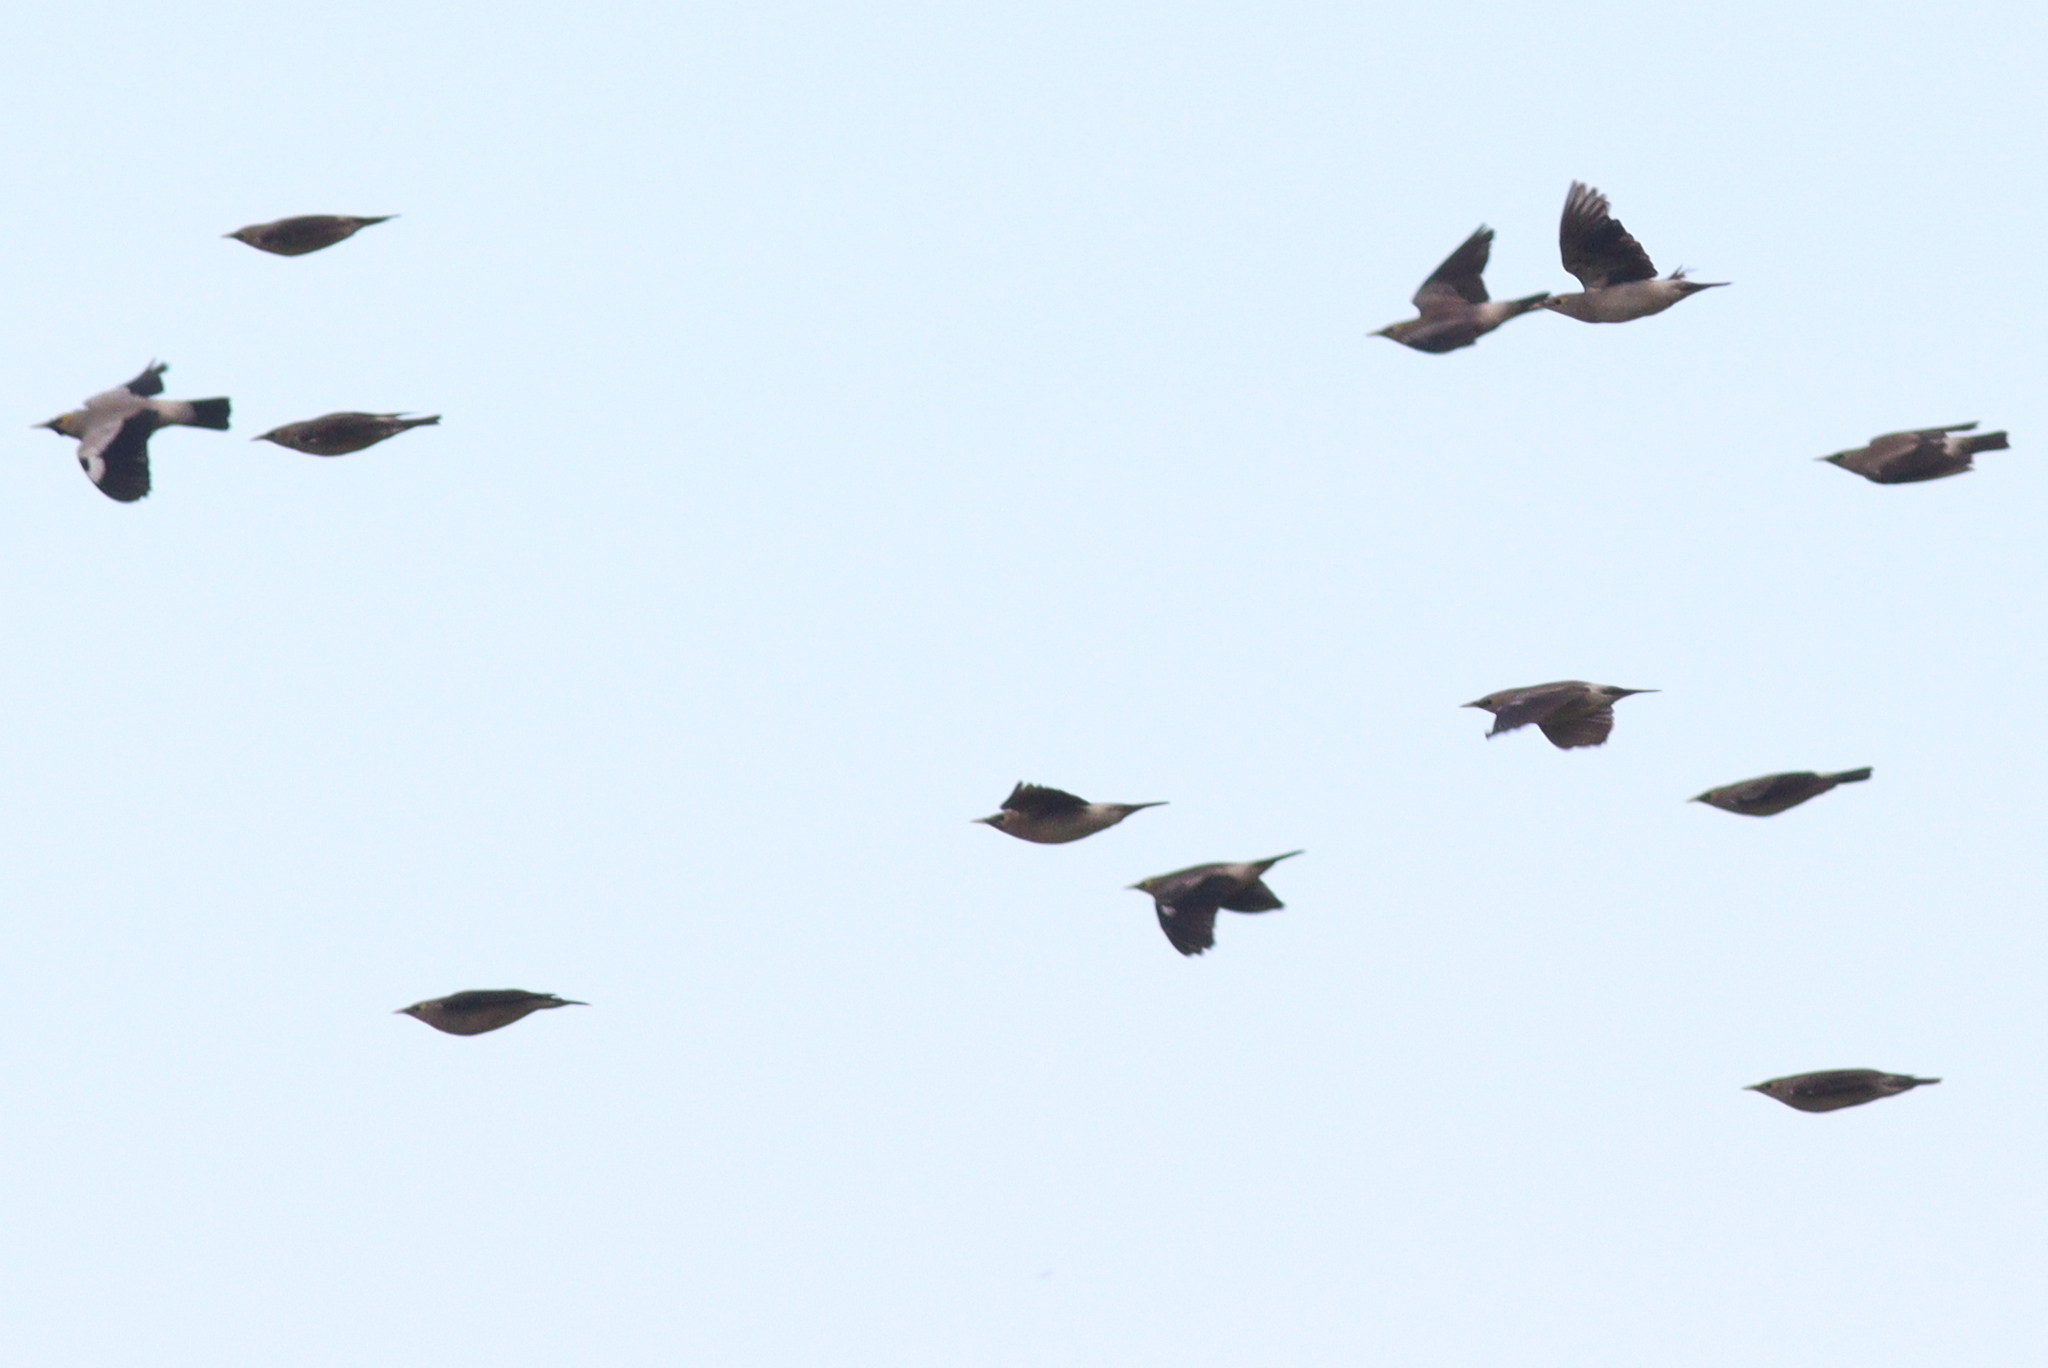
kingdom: Animalia
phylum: Chordata
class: Aves
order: Passeriformes
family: Sturnidae
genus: Creatophora
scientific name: Creatophora cinerea
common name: Wattled starling
